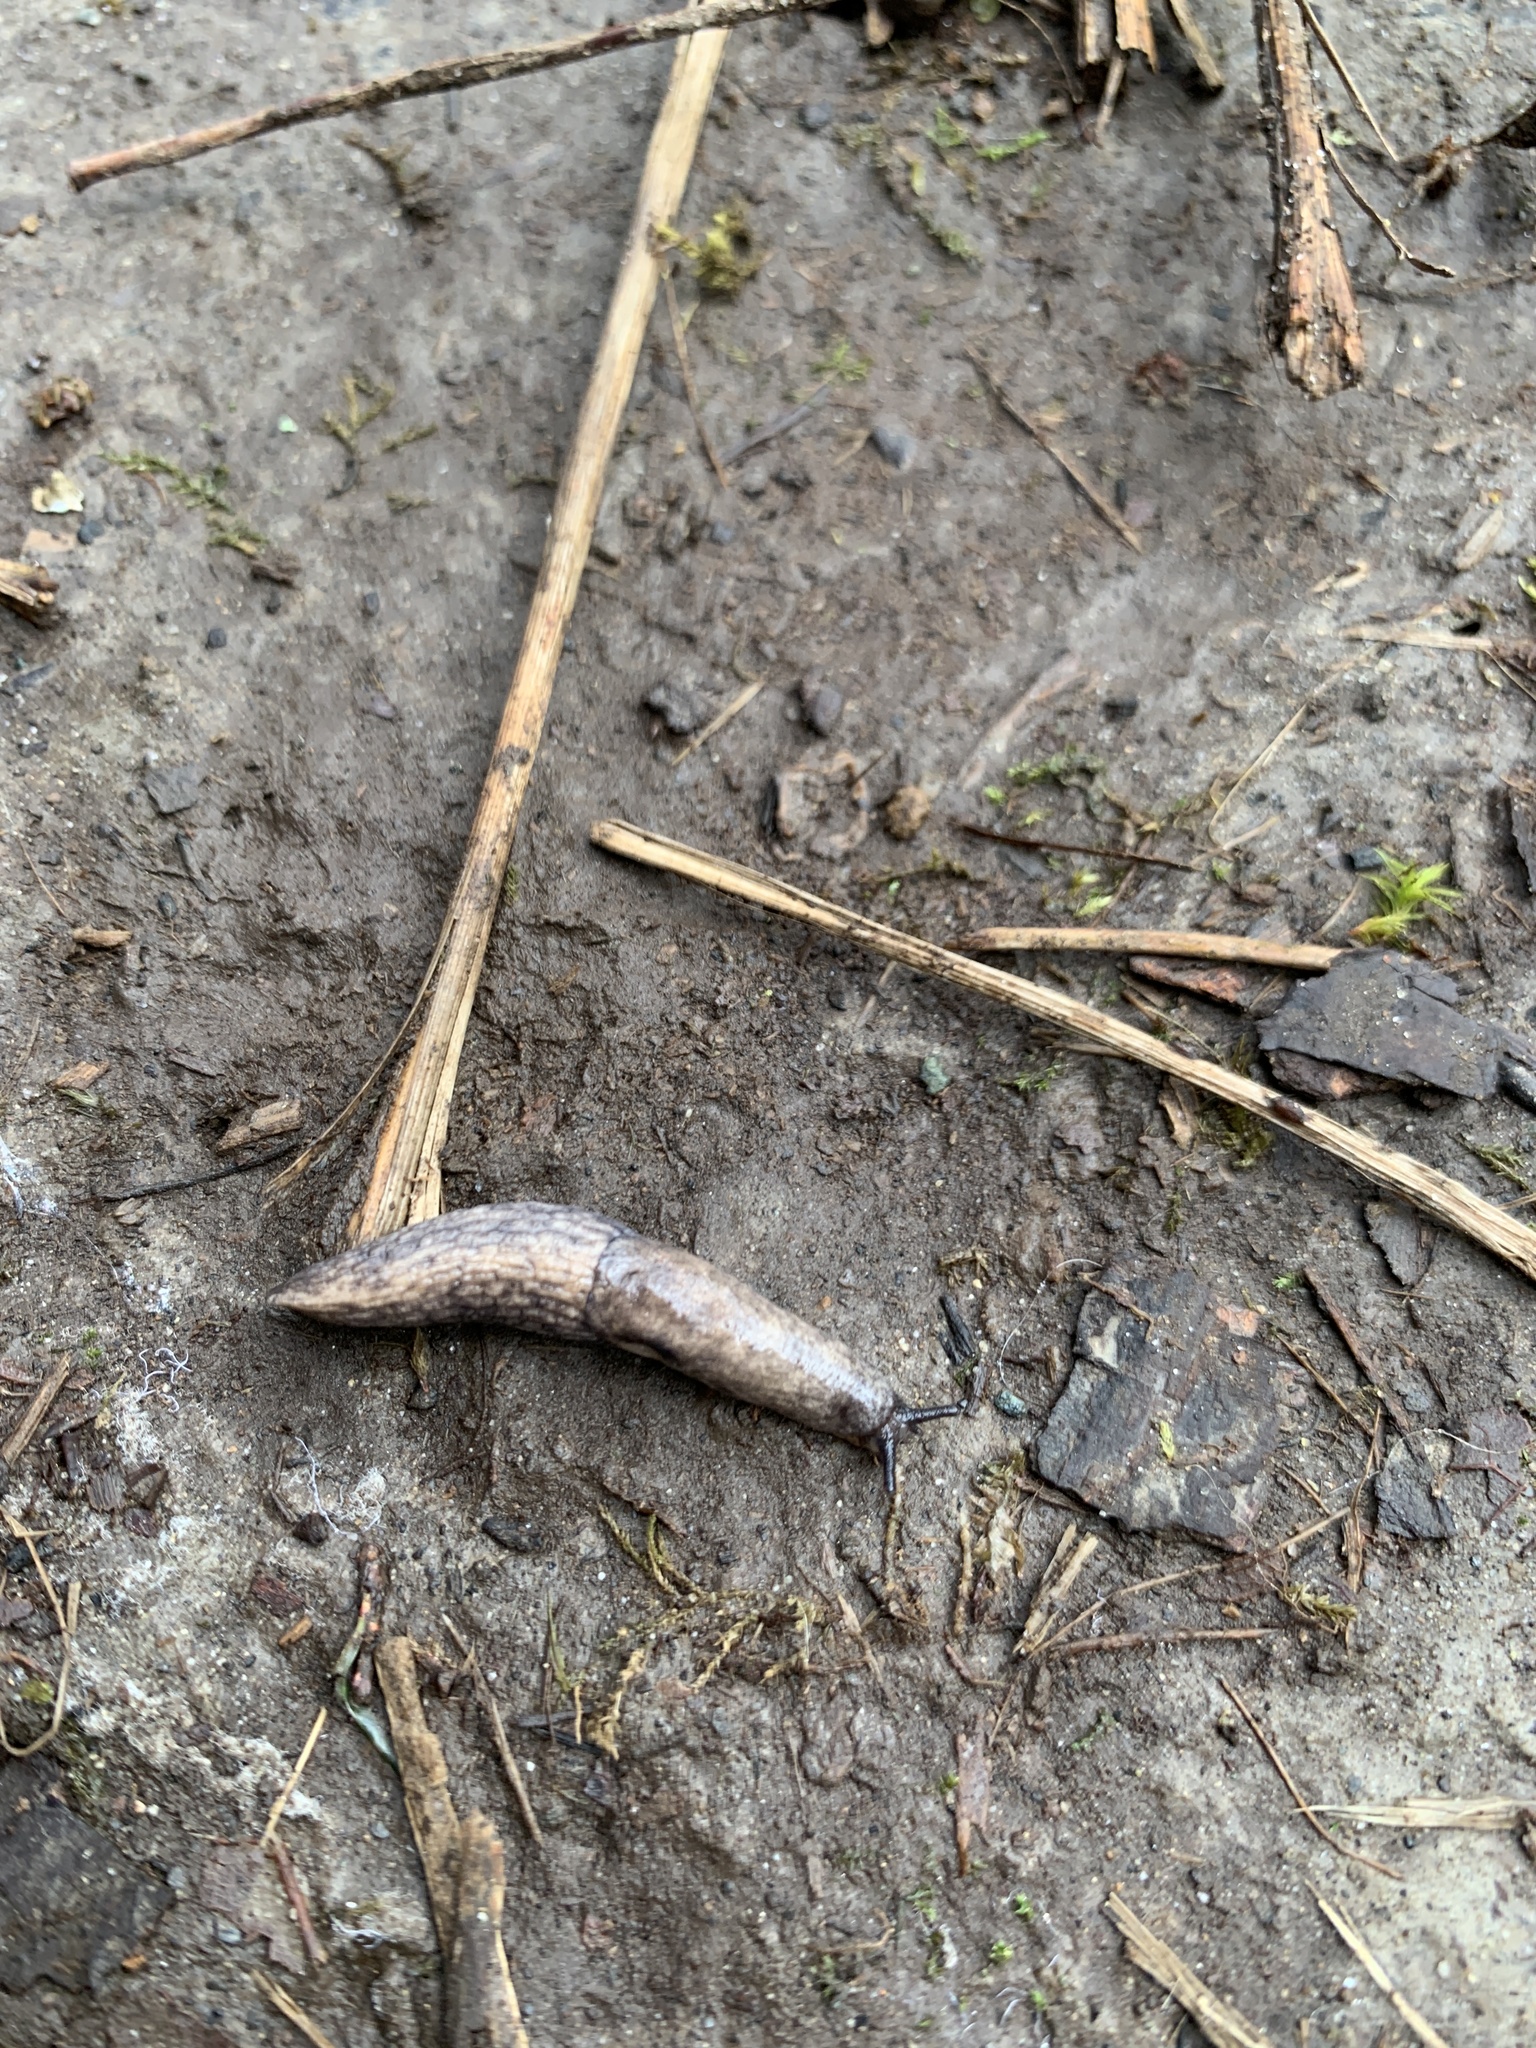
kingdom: Animalia
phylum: Mollusca
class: Gastropoda
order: Stylommatophora
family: Agriolimacidae
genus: Deroceras
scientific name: Deroceras reticulatum
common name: Gray field slug
